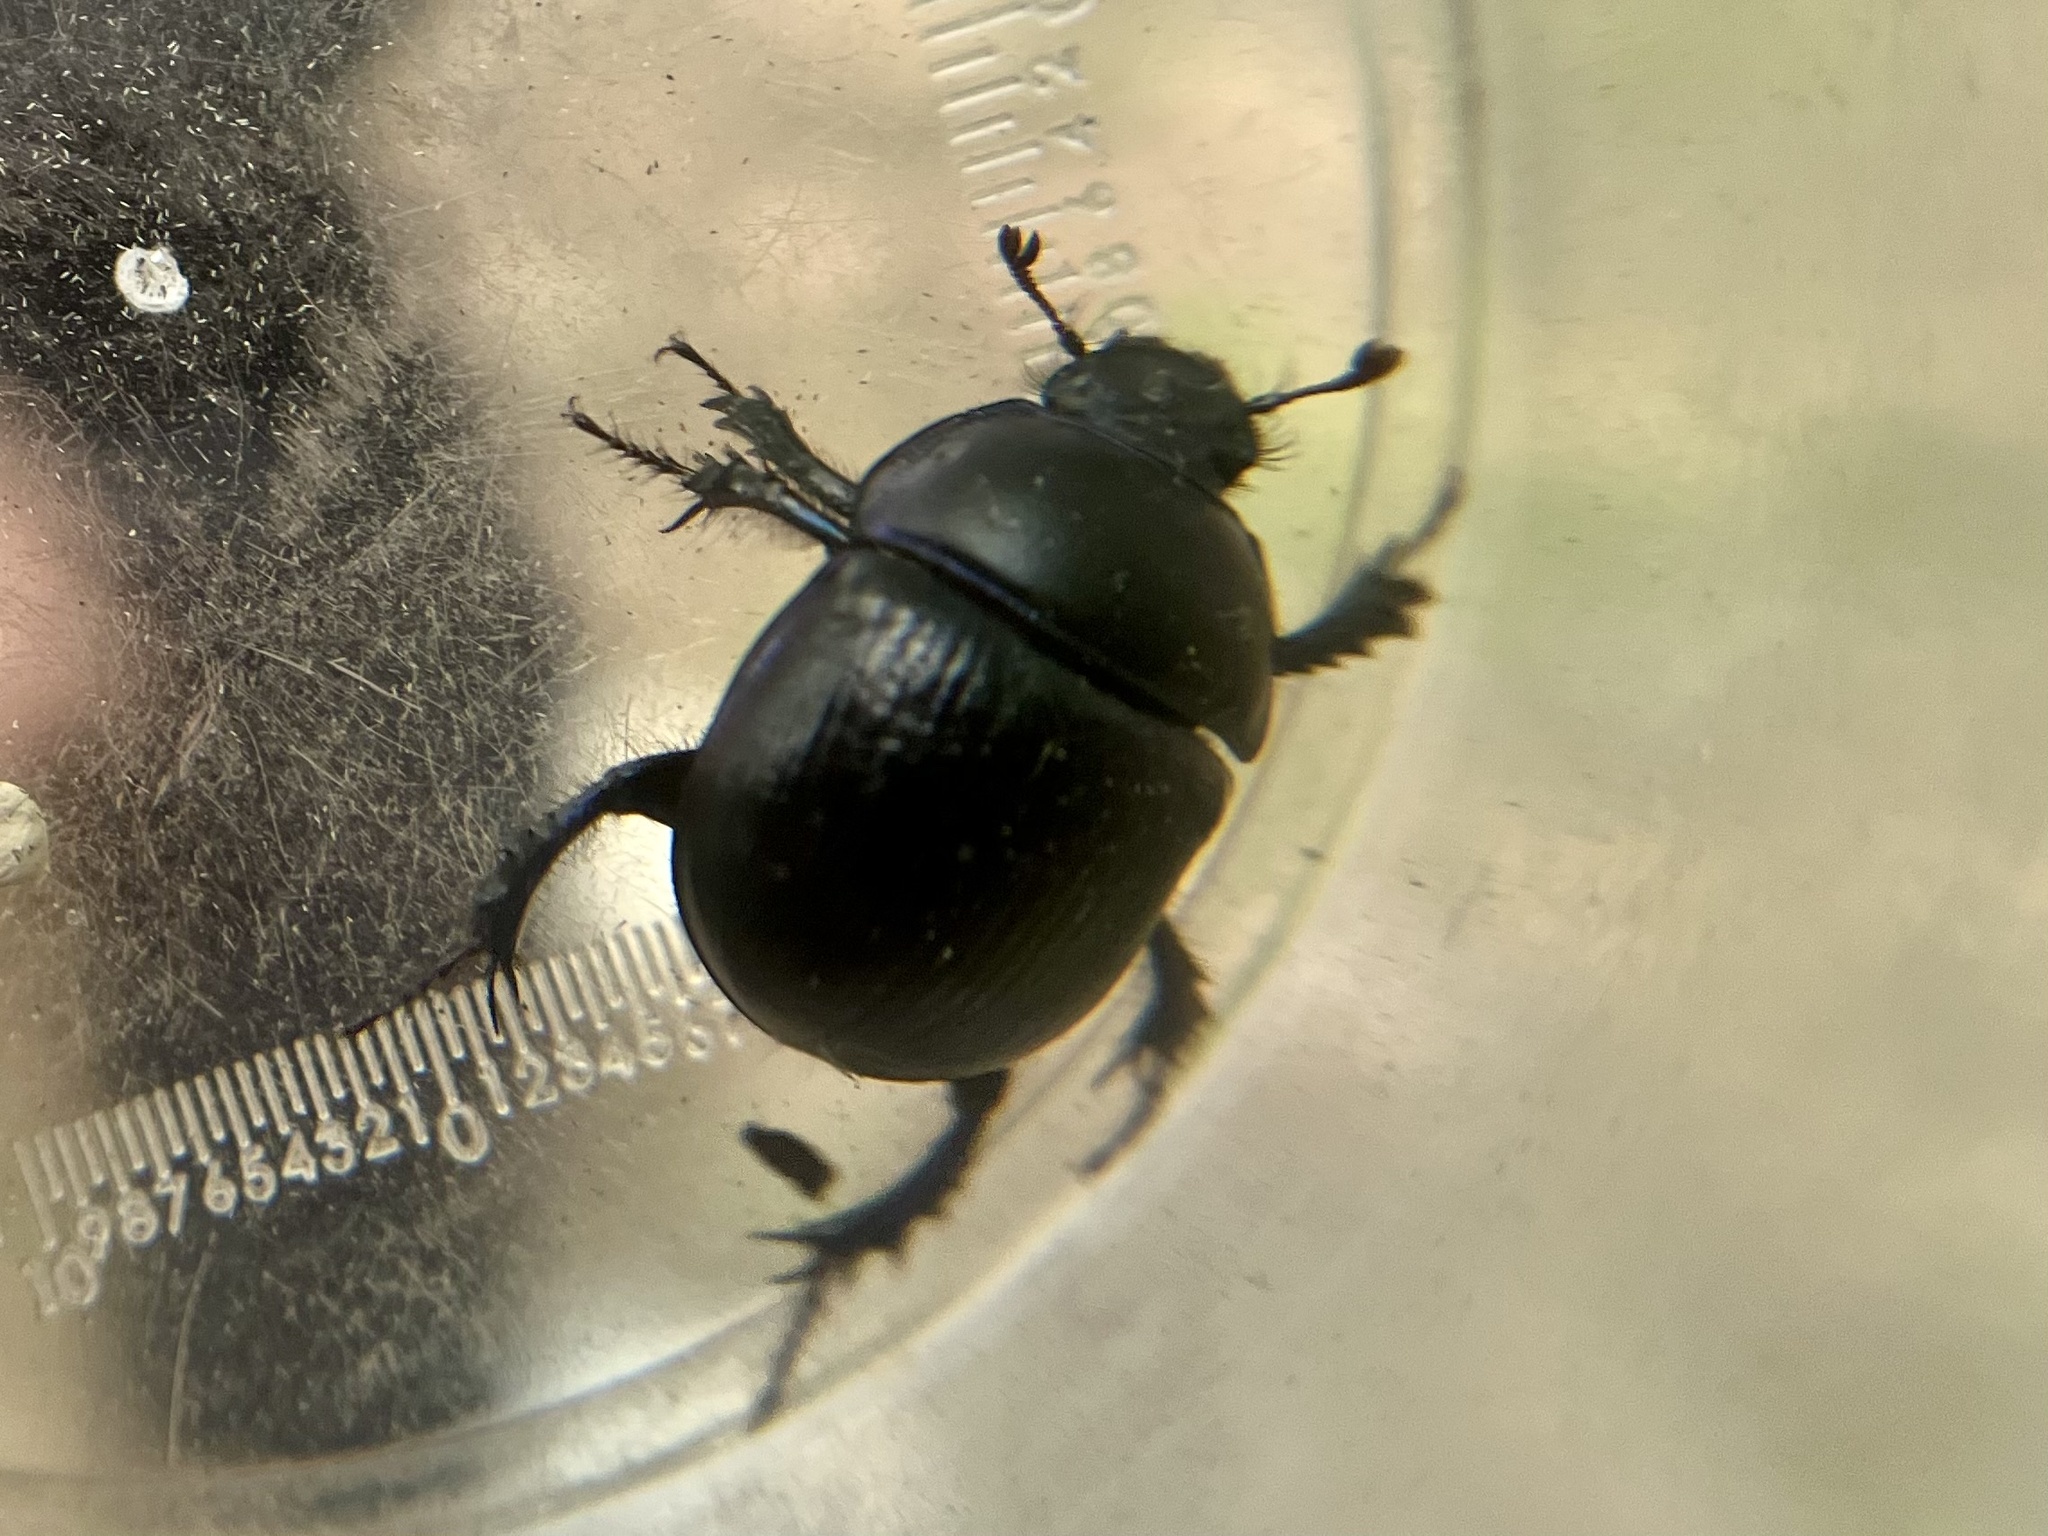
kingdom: Animalia
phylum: Arthropoda
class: Insecta
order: Coleoptera
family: Geotrupidae
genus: Anoplotrupes
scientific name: Anoplotrupes stercorosus
